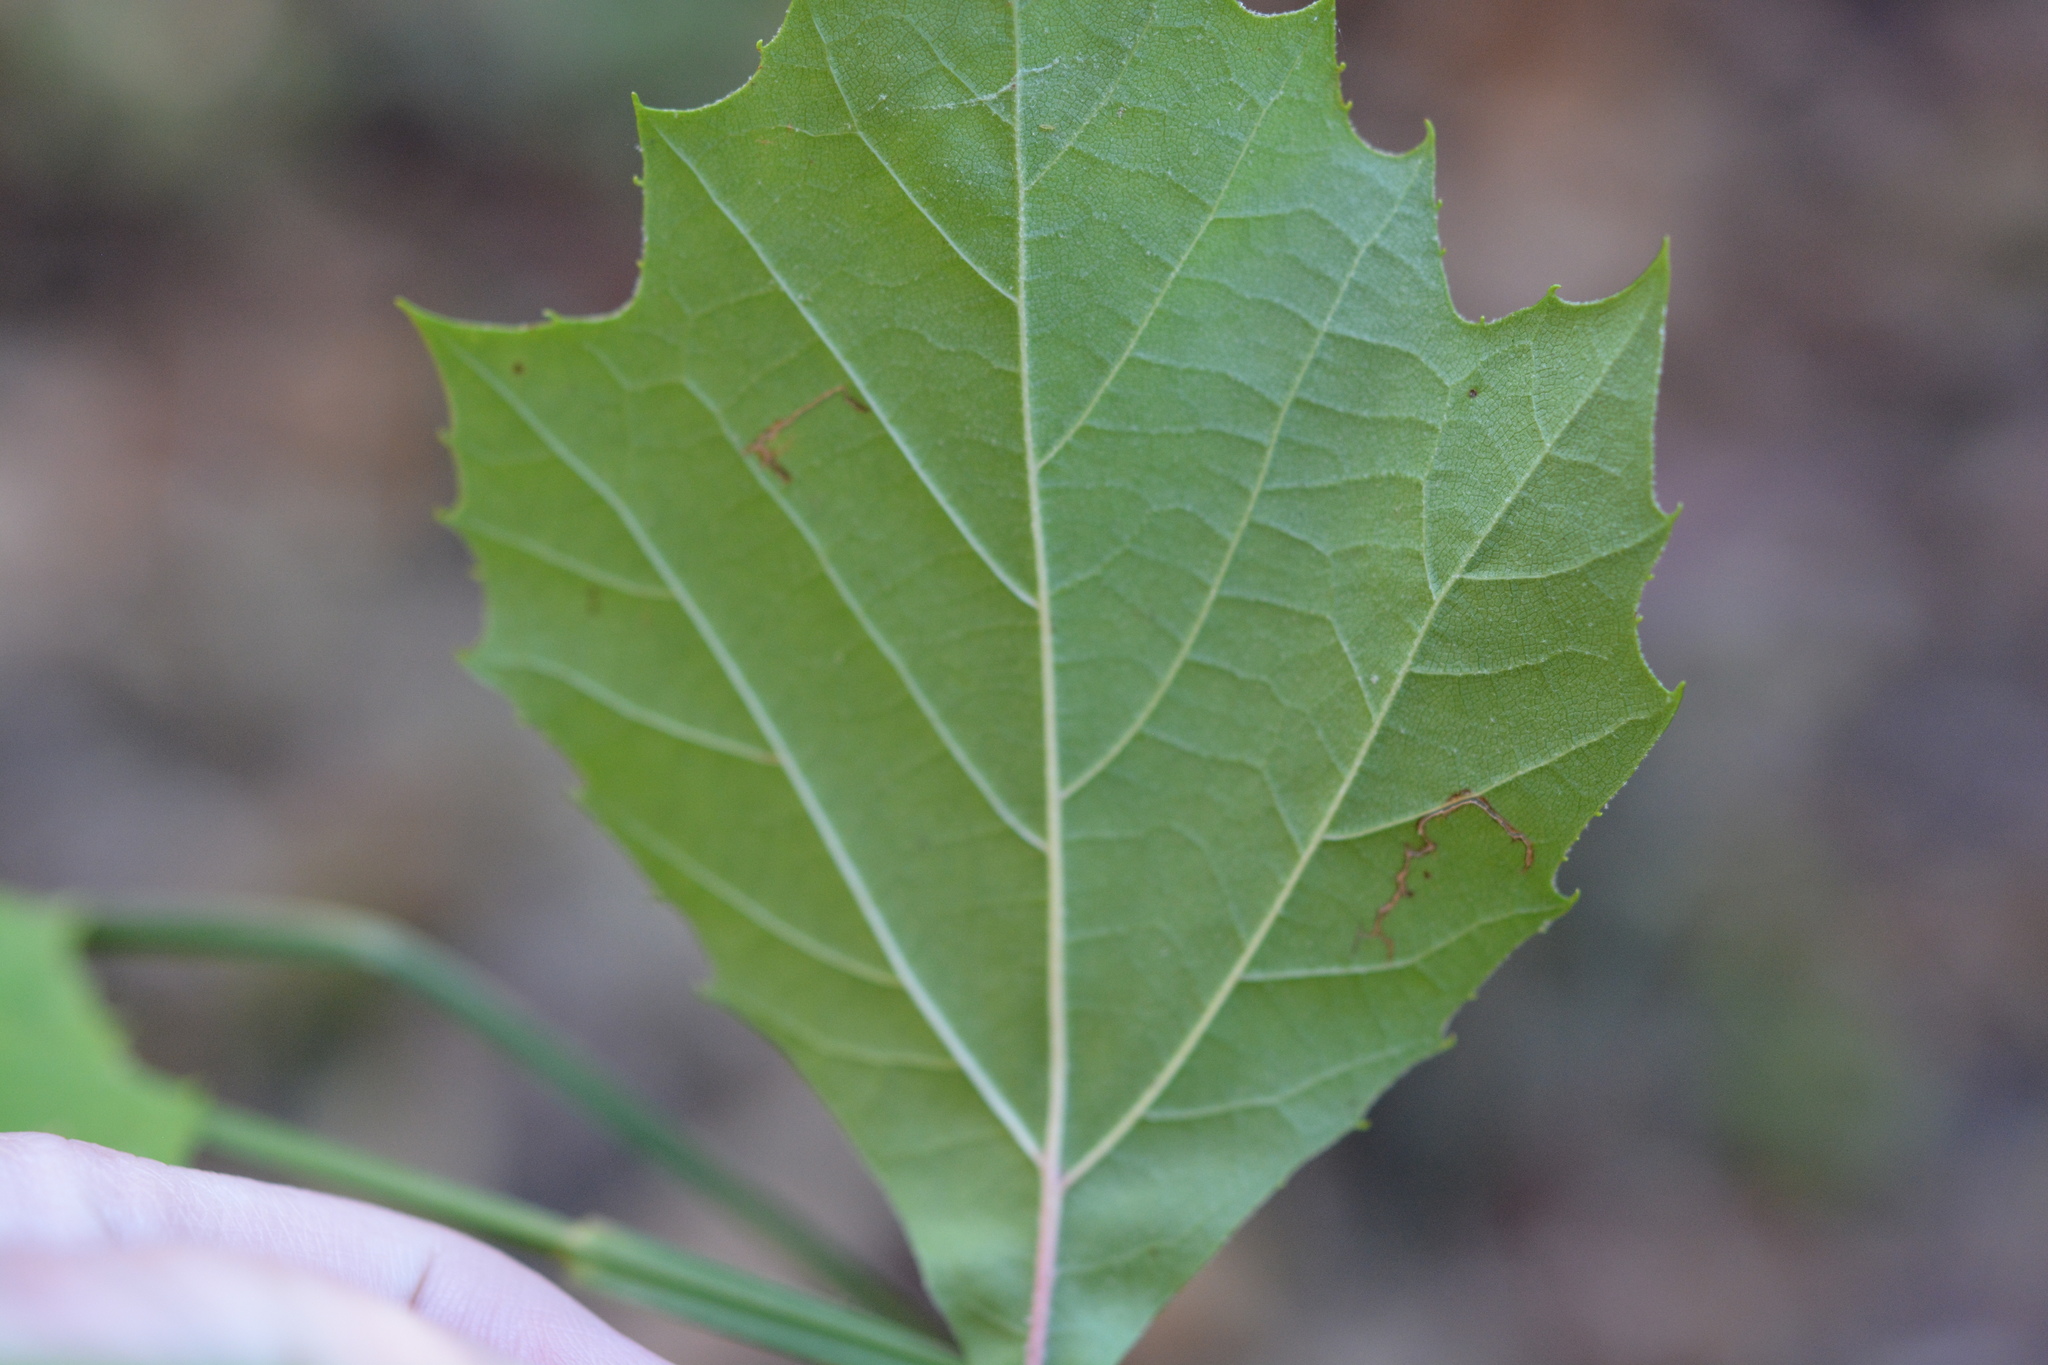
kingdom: Plantae
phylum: Tracheophyta
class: Magnoliopsida
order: Proteales
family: Platanaceae
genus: Platanus
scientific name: Platanus occidentalis
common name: American sycamore
